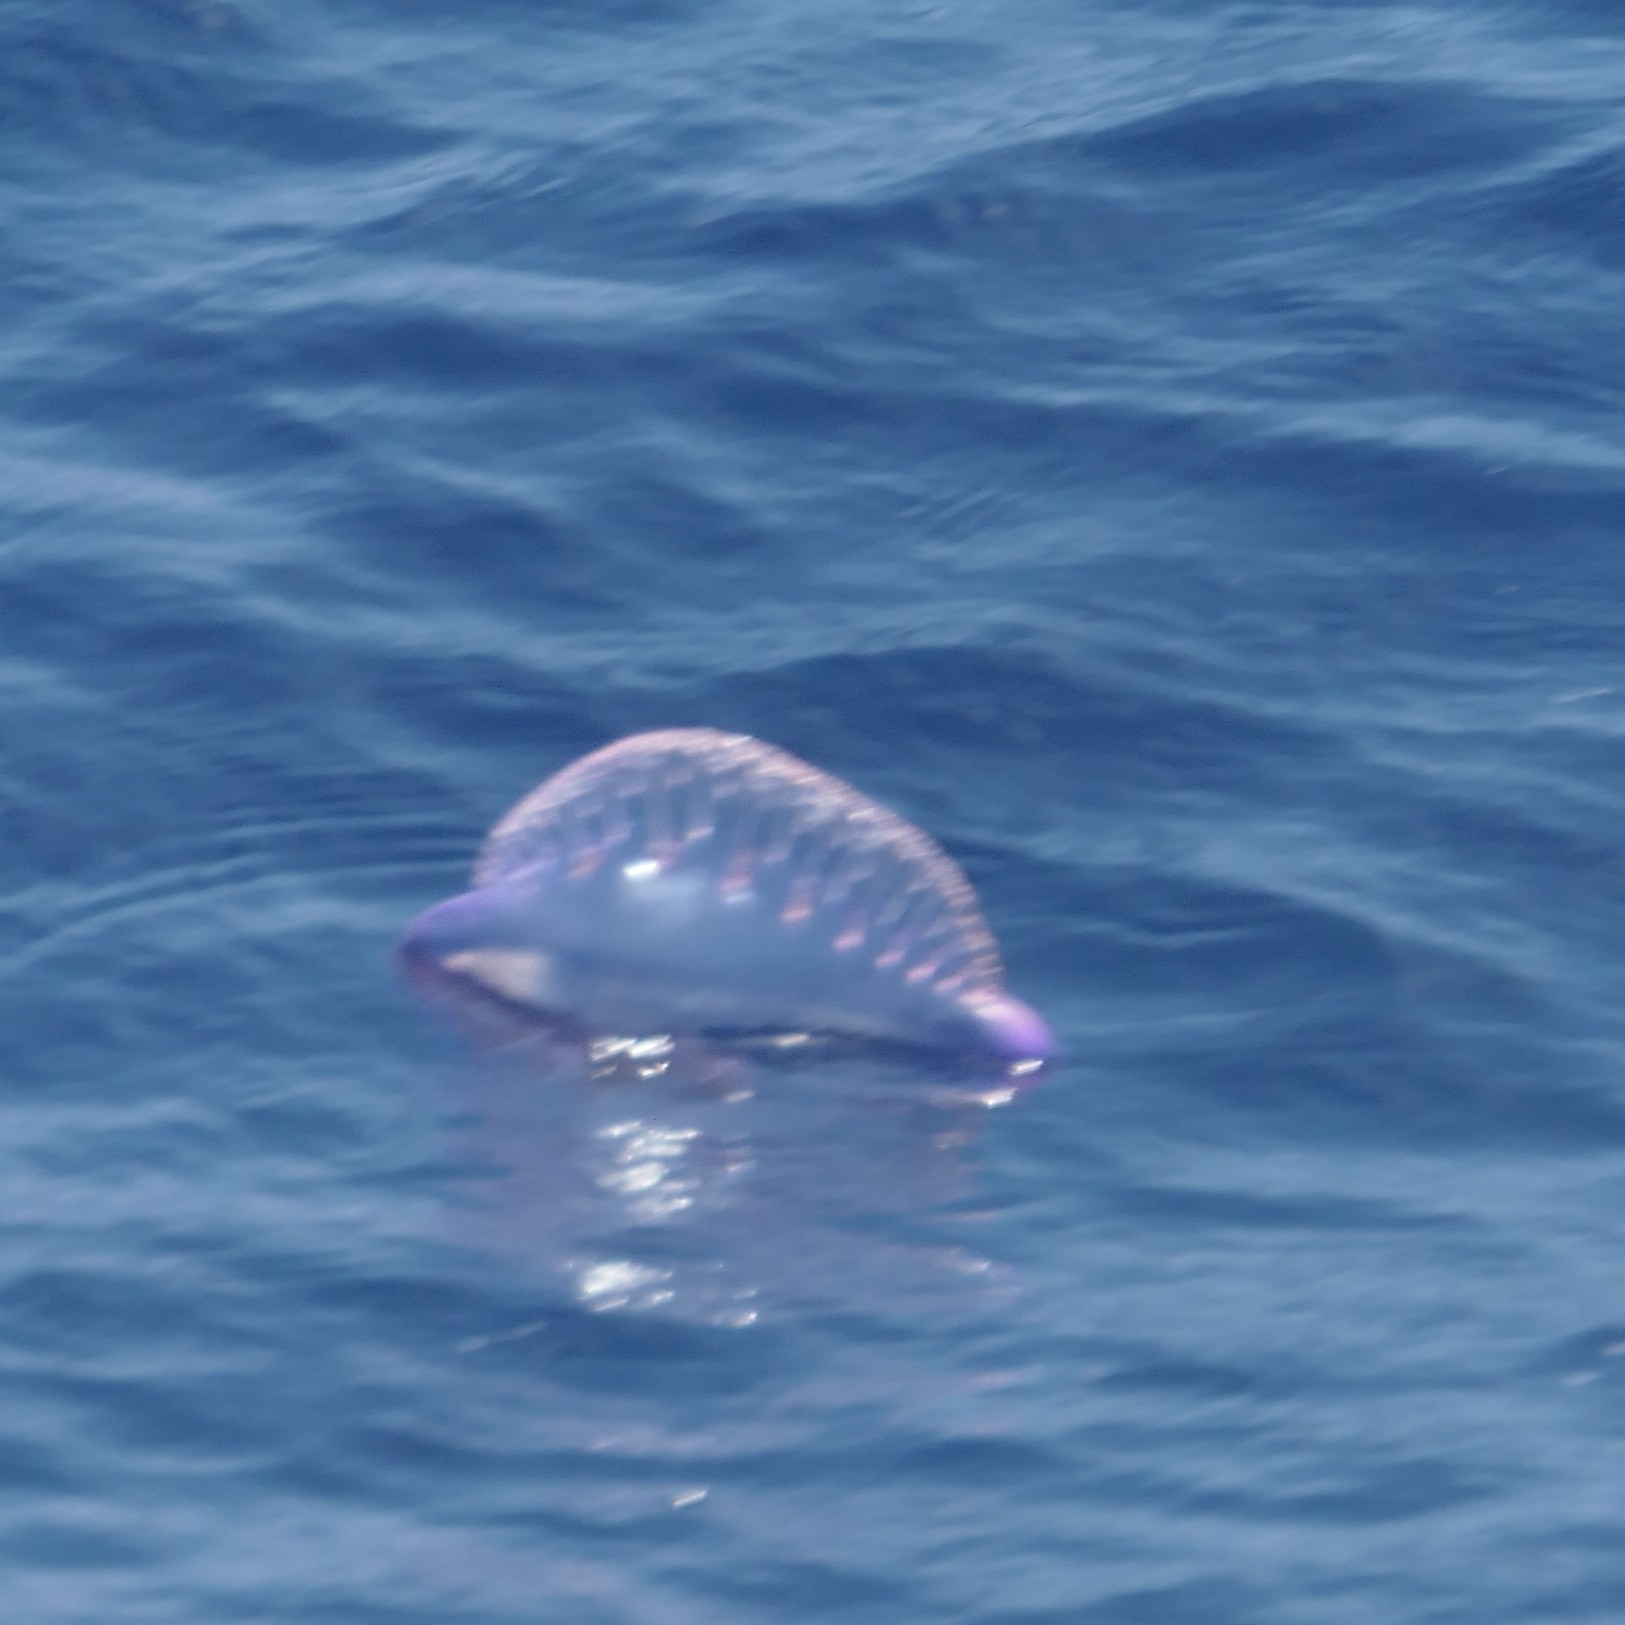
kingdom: Animalia
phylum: Cnidaria
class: Hydrozoa
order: Siphonophorae
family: Physaliidae
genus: Physalia
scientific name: Physalia physalis
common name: Portuguese man-of-war
